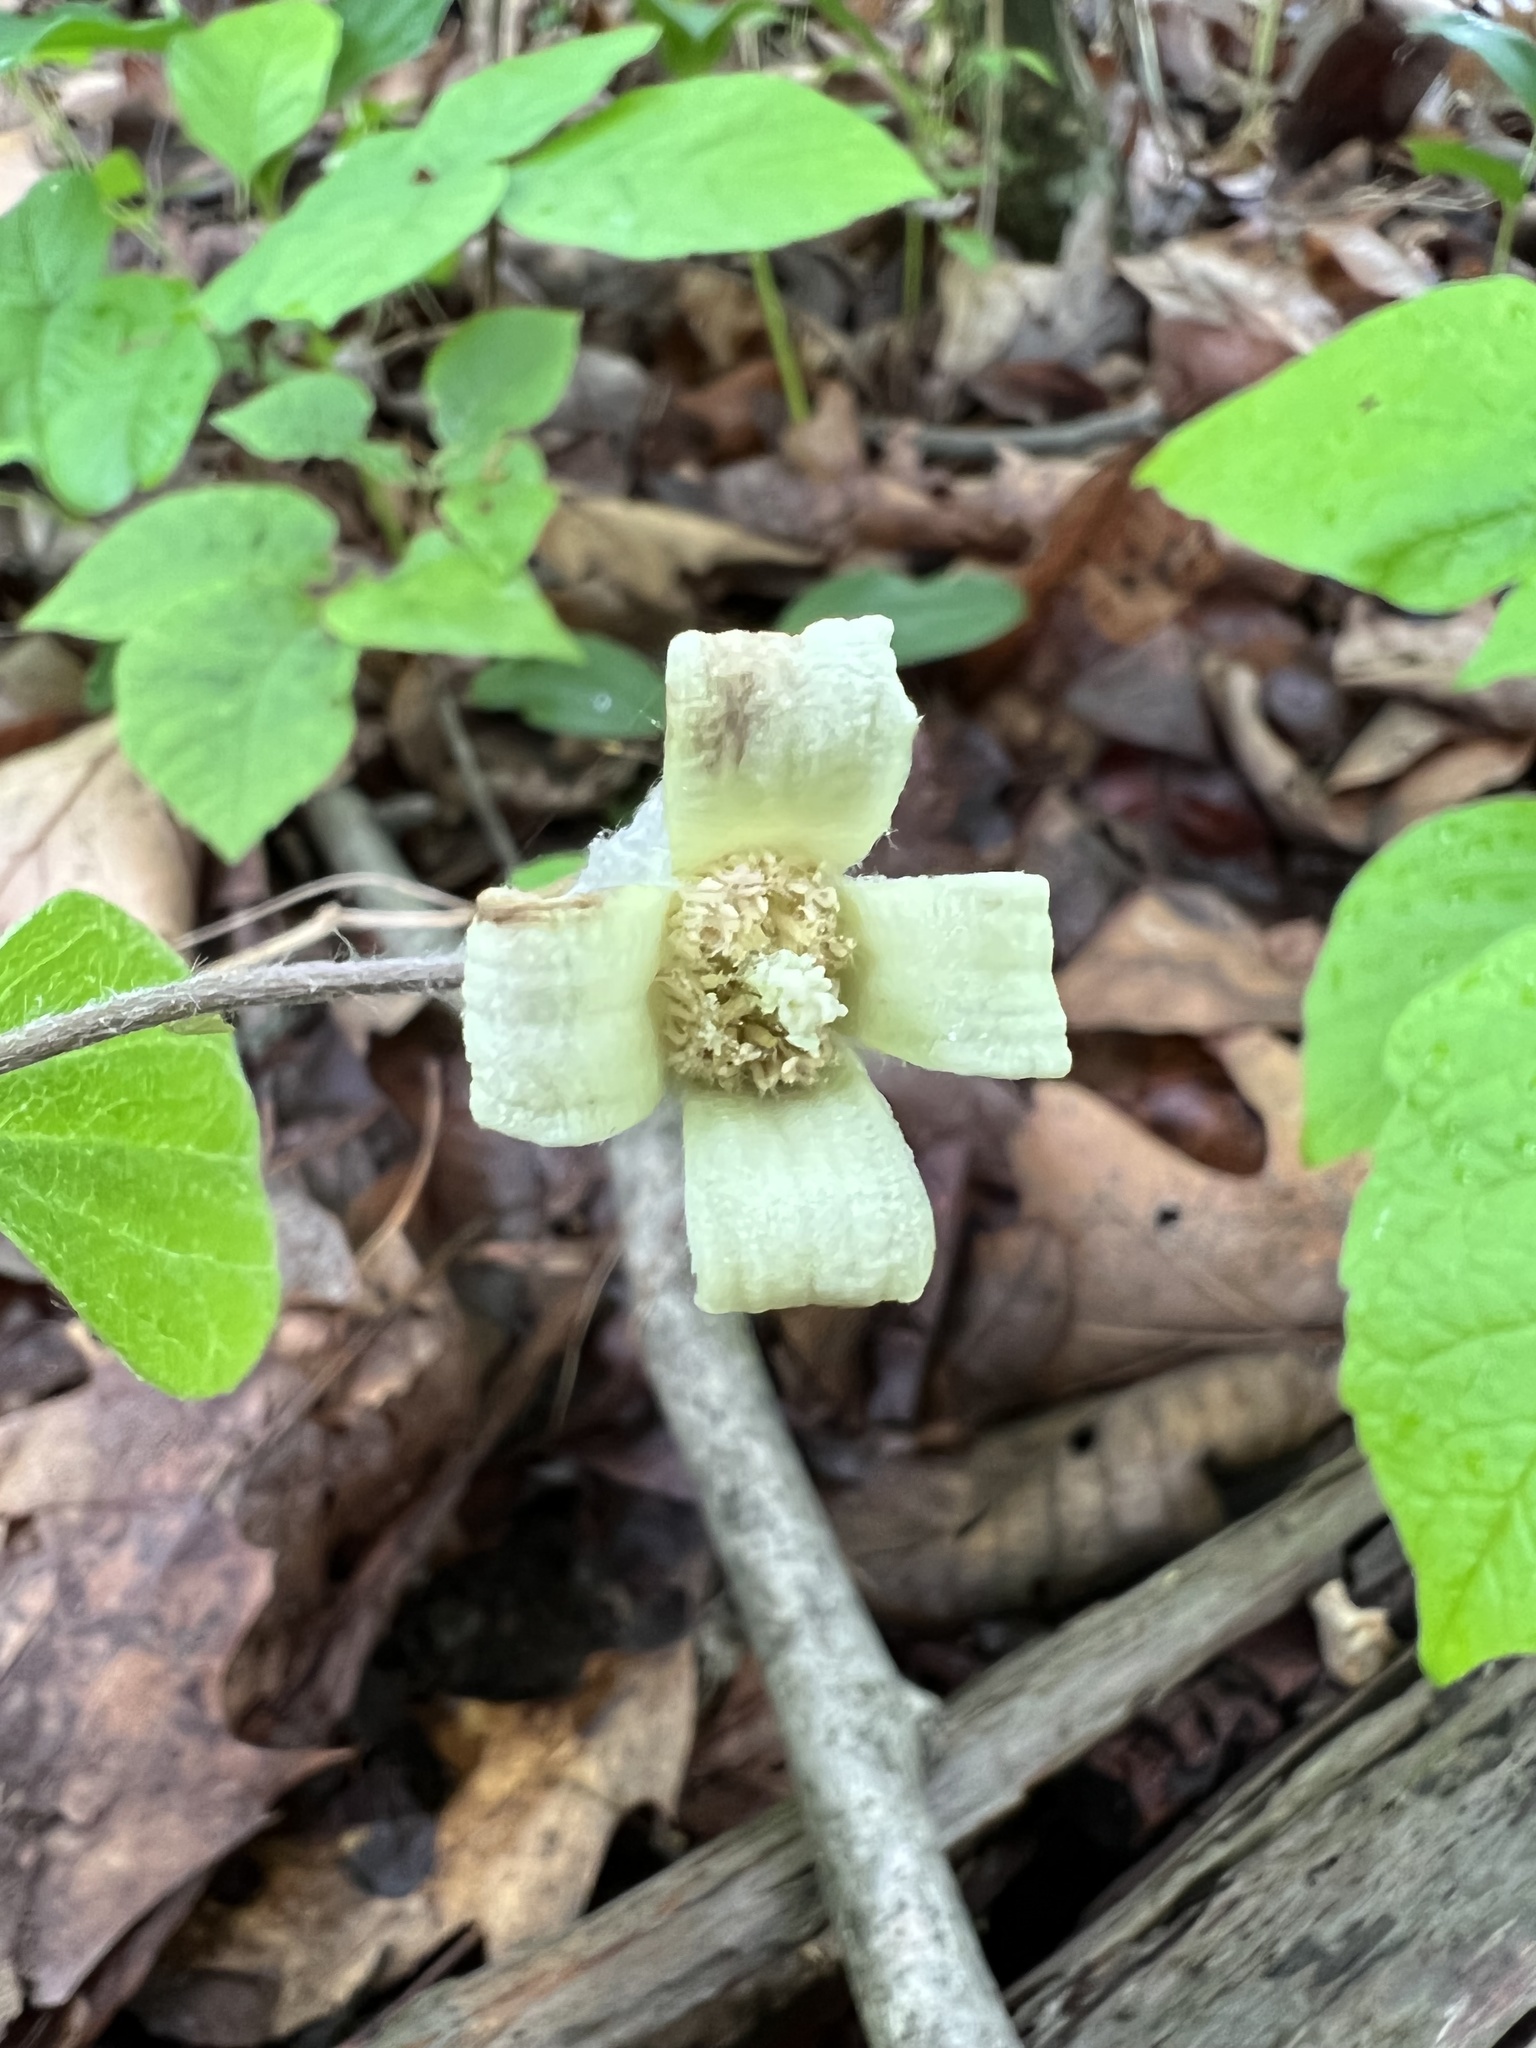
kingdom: Plantae
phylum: Tracheophyta
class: Magnoliopsida
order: Ranunculales
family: Ranunculaceae
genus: Clematis
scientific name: Clematis ochroleuca
